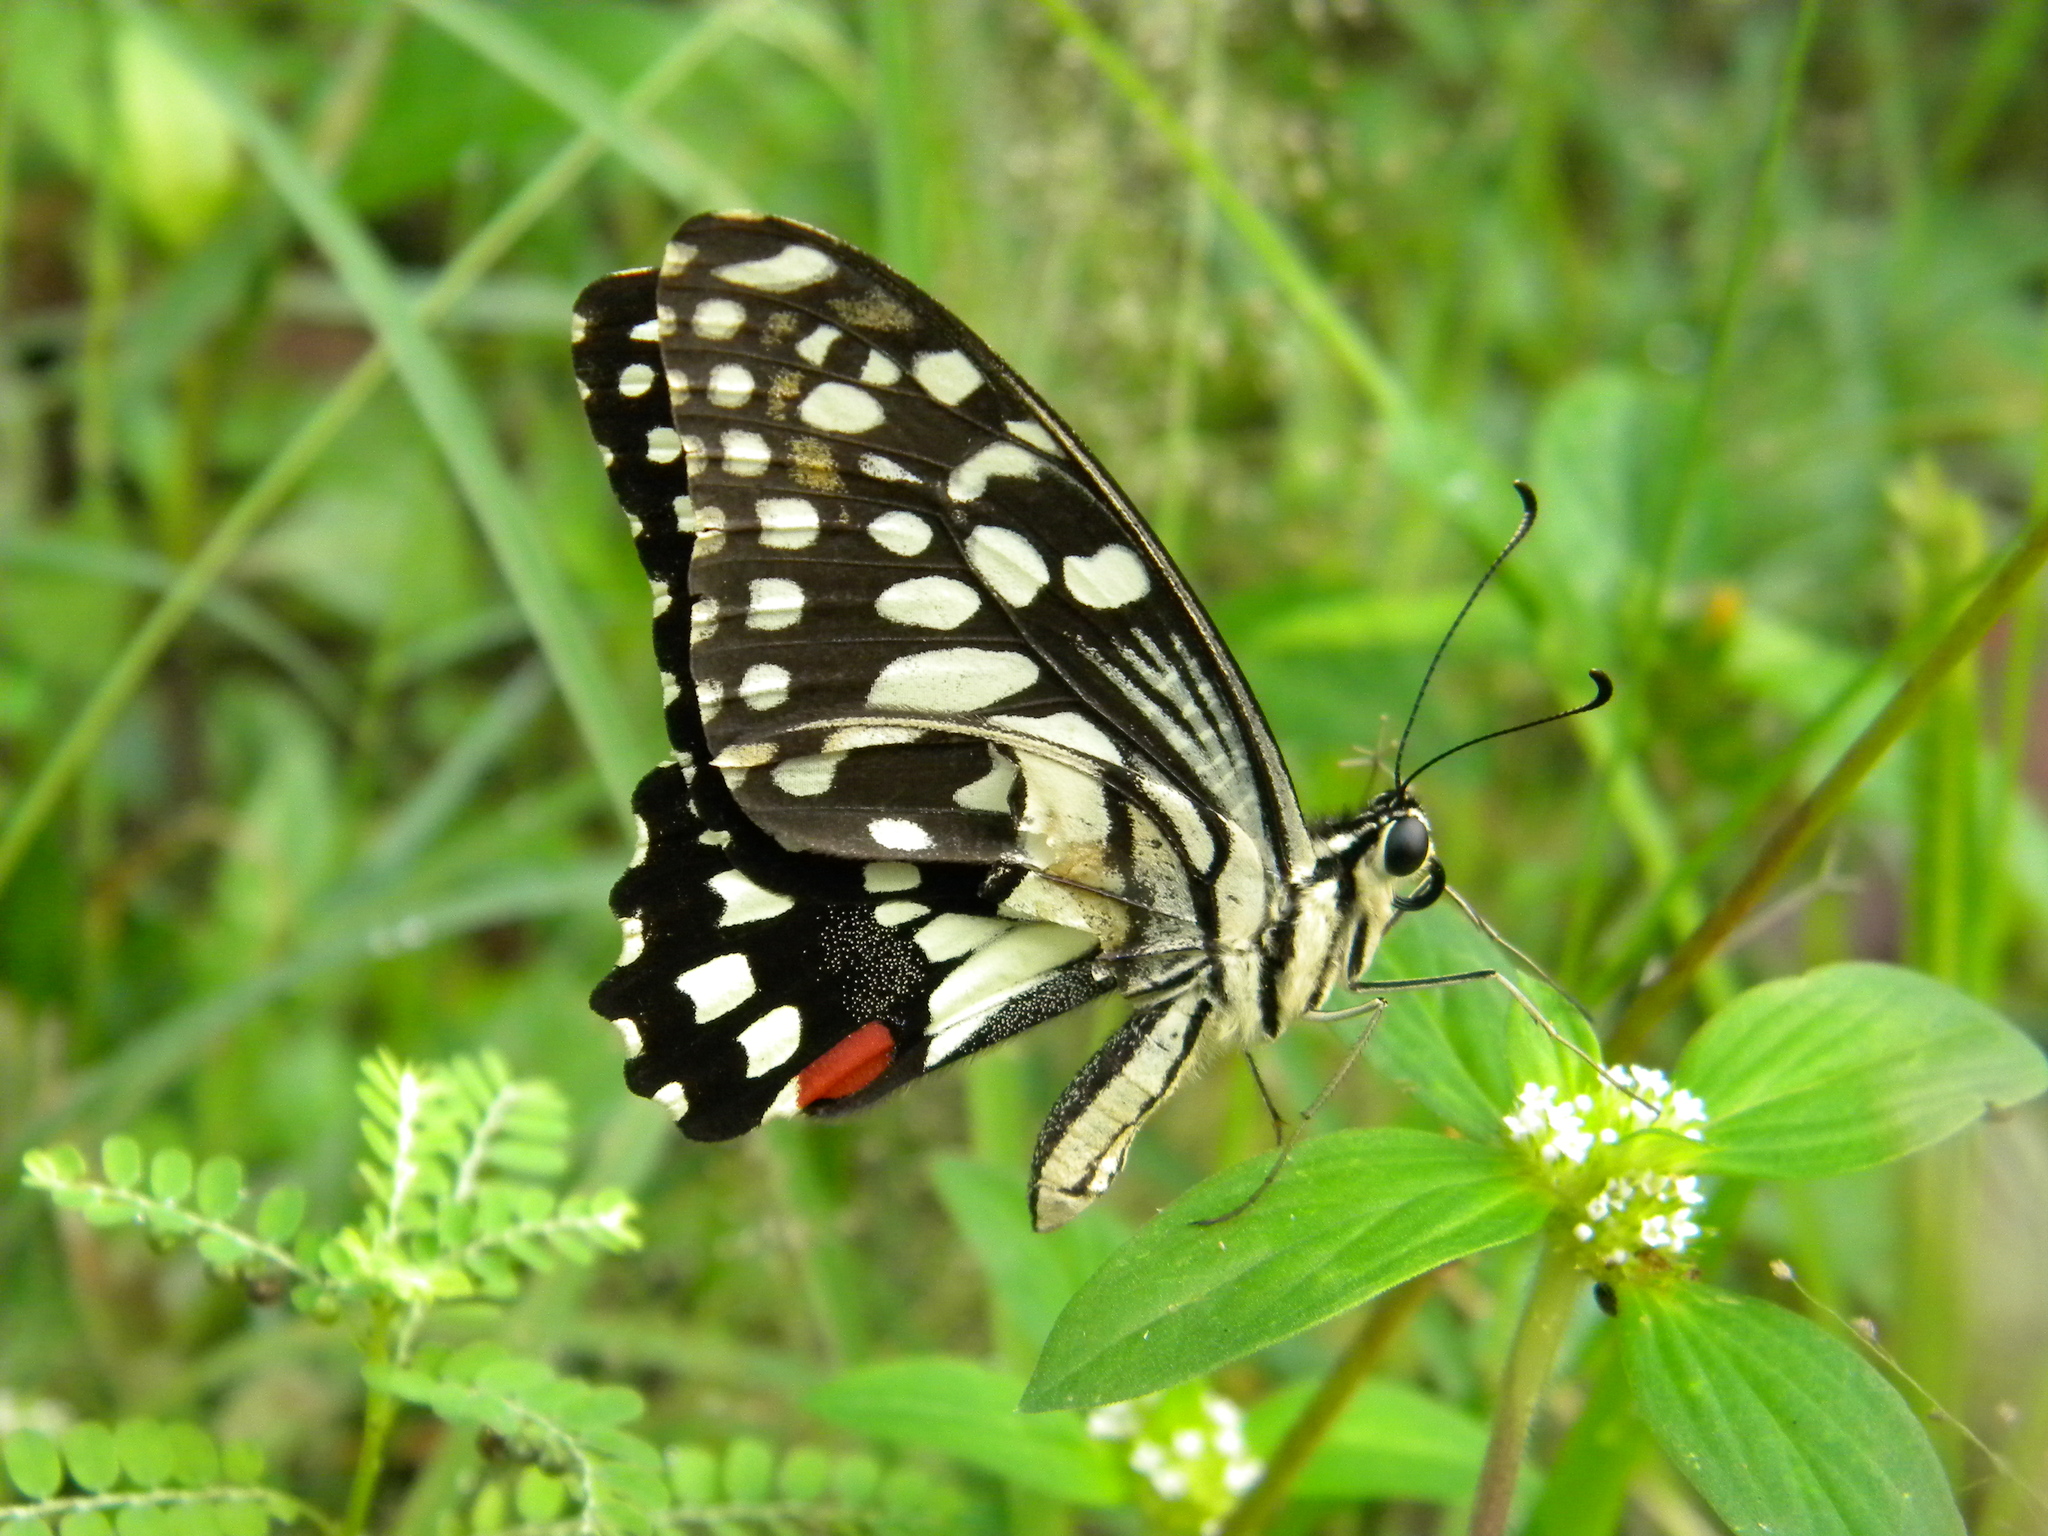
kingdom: Animalia
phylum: Arthropoda
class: Insecta
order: Lepidoptera
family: Papilionidae
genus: Papilio
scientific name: Papilio demoleus
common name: Lime butterfly
